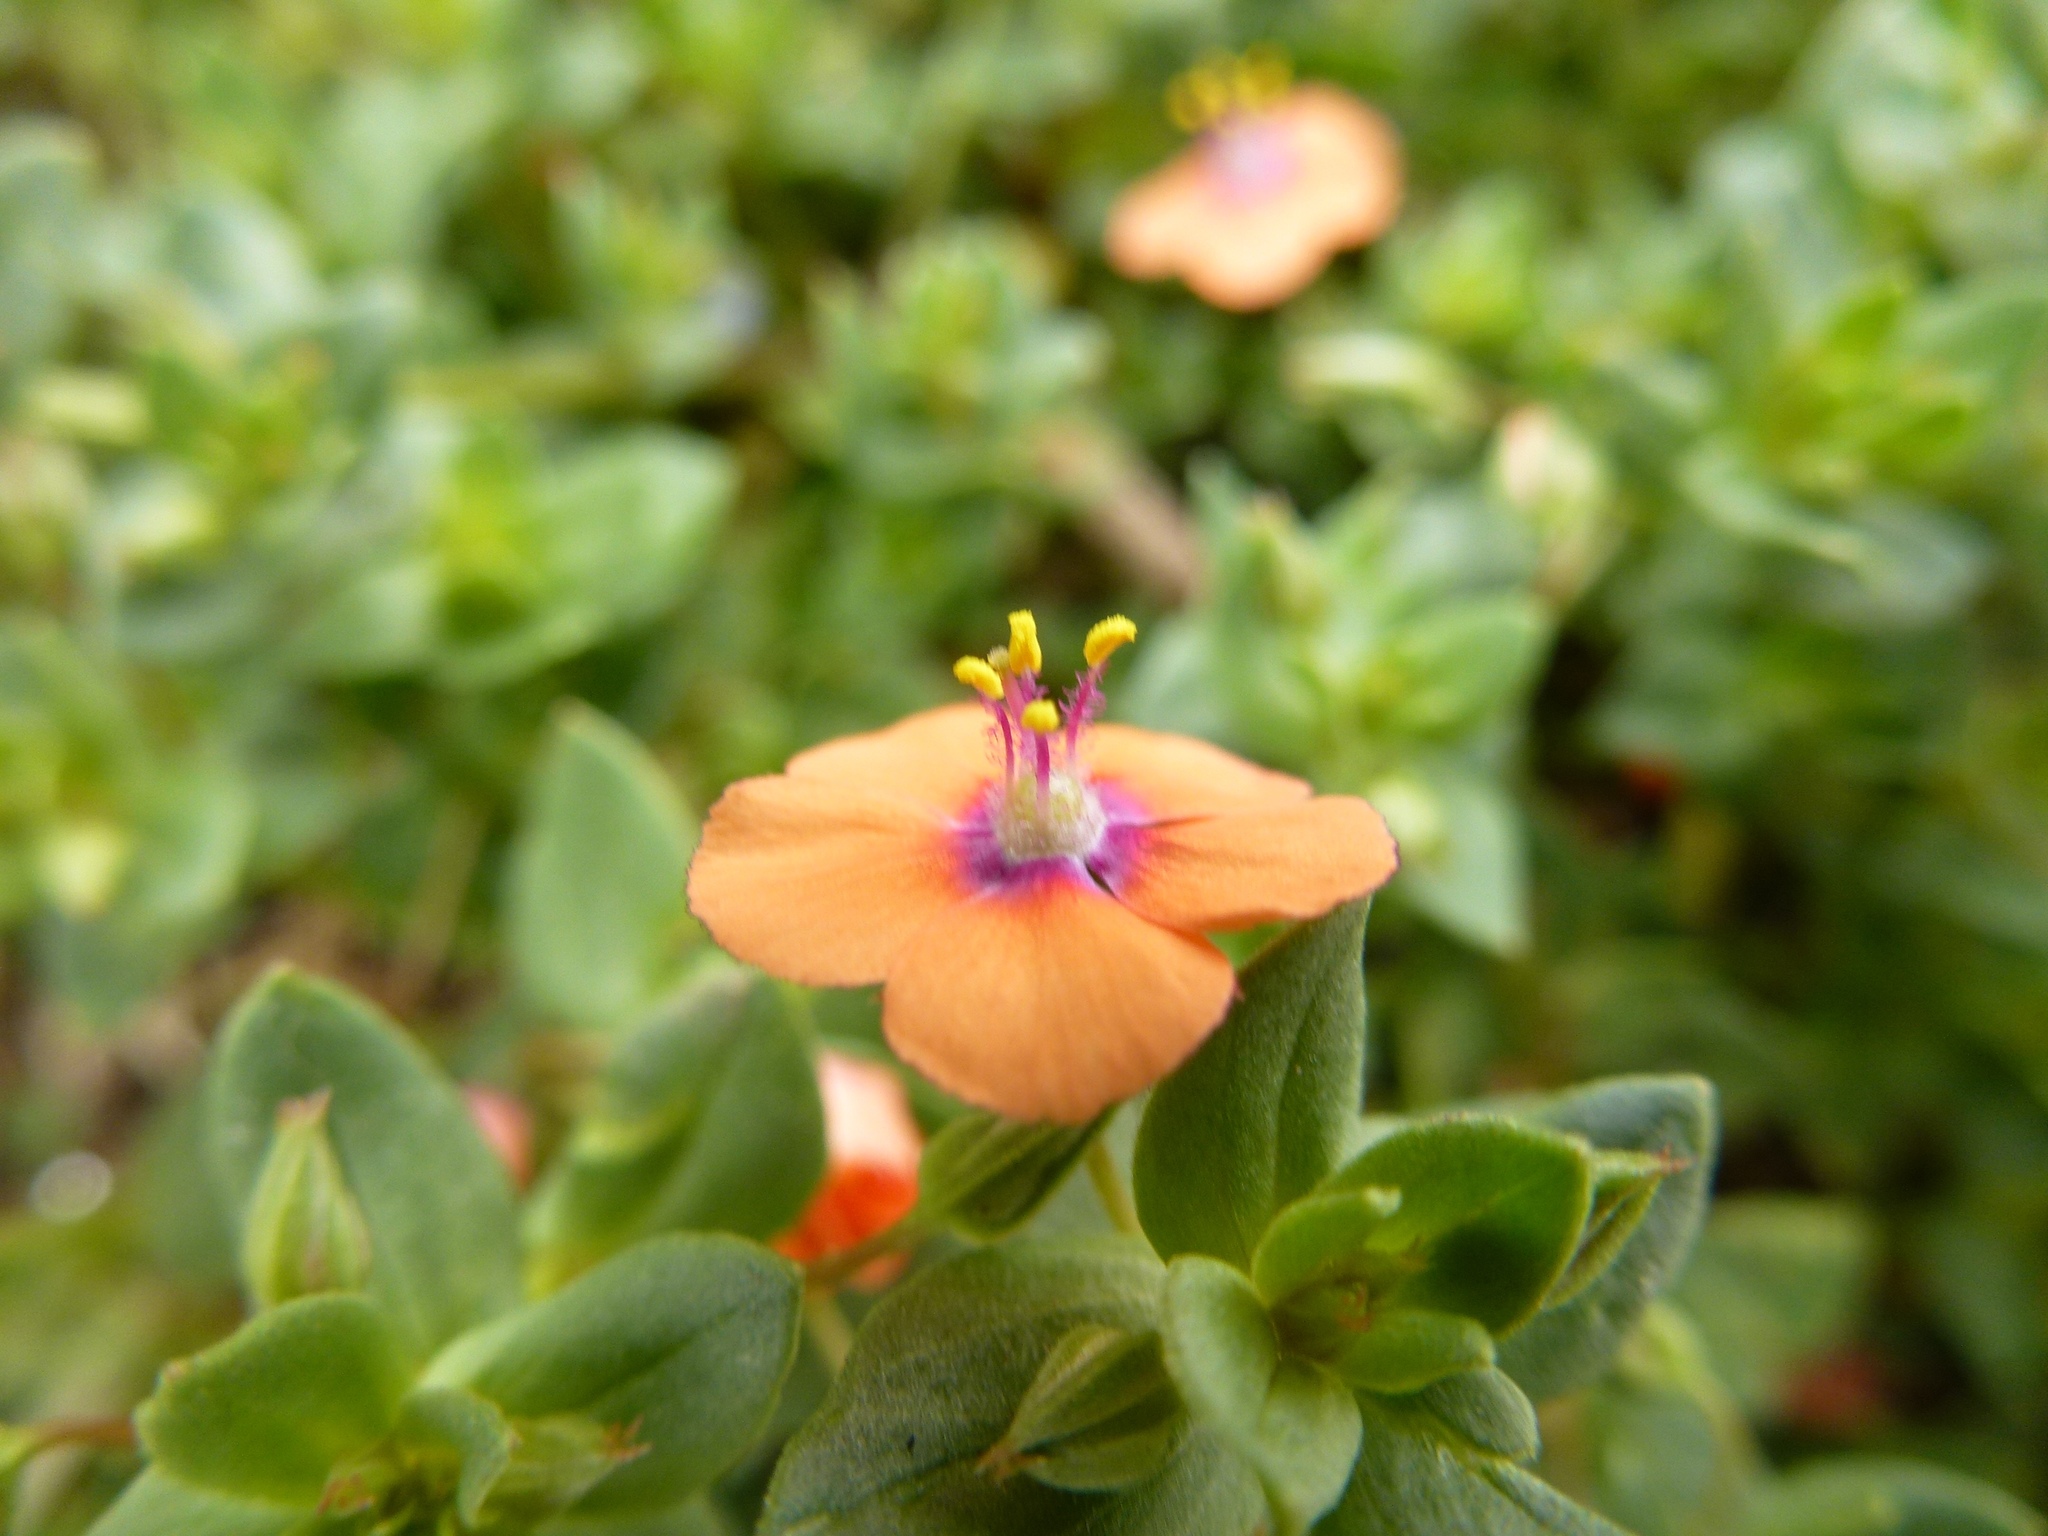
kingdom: Plantae
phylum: Tracheophyta
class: Magnoliopsida
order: Ericales
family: Primulaceae
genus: Lysimachia
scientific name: Lysimachia arvensis
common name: Scarlet pimpernel
